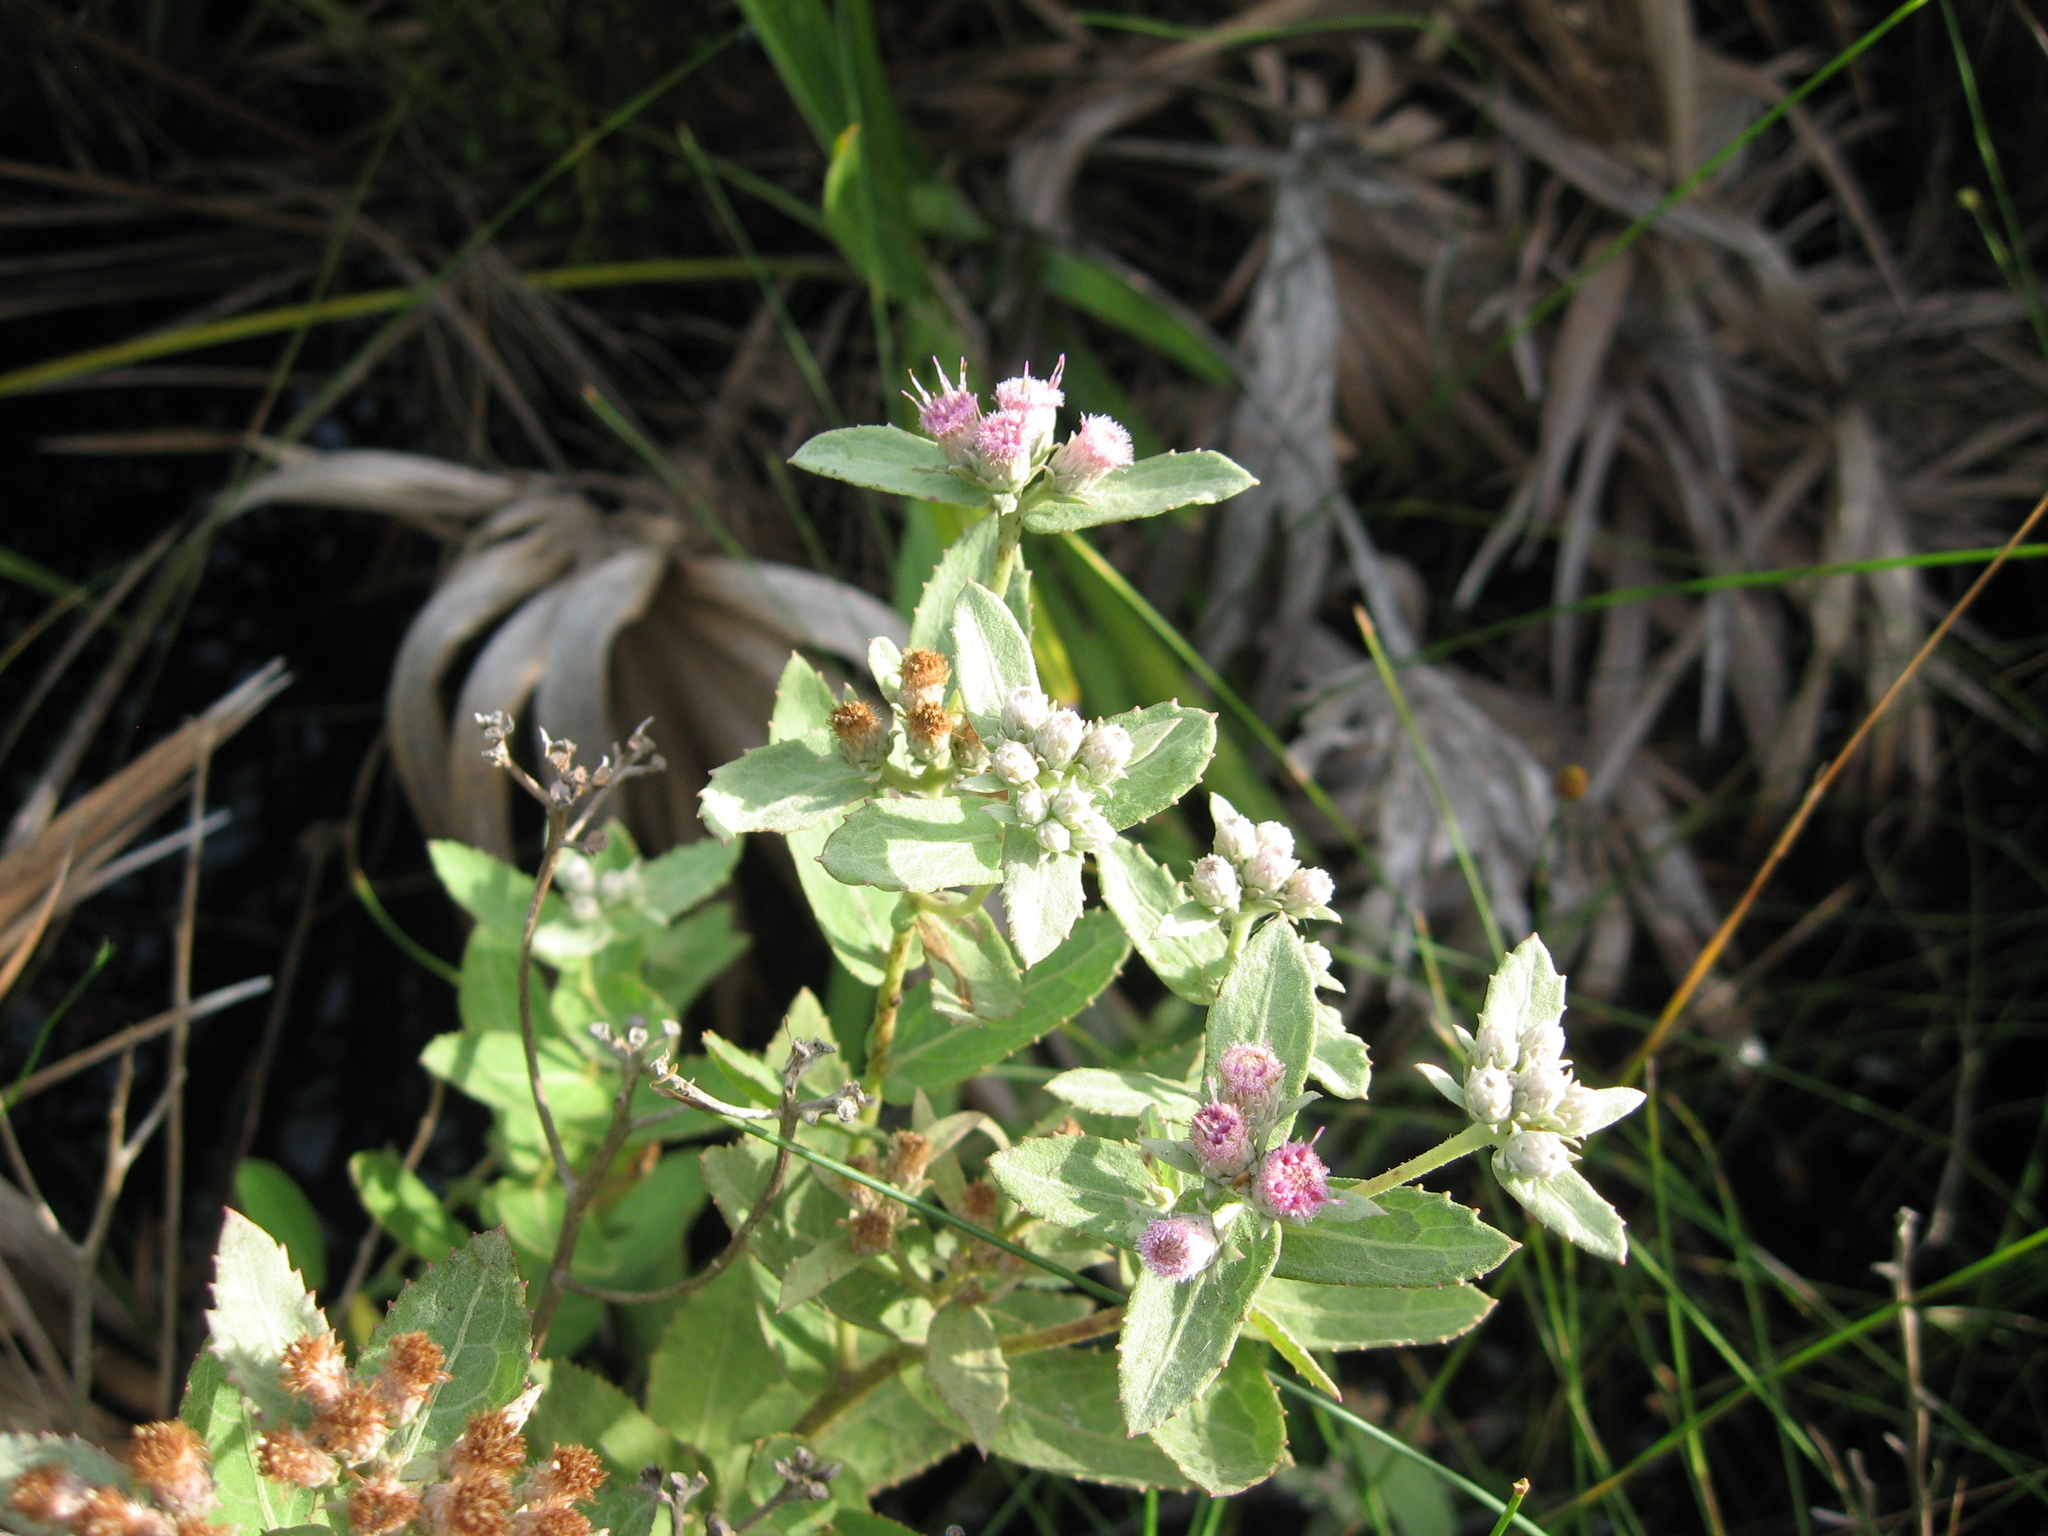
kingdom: Plantae
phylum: Tracheophyta
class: Magnoliopsida
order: Asterales
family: Asteraceae
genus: Pluchea
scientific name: Pluchea baccharis
